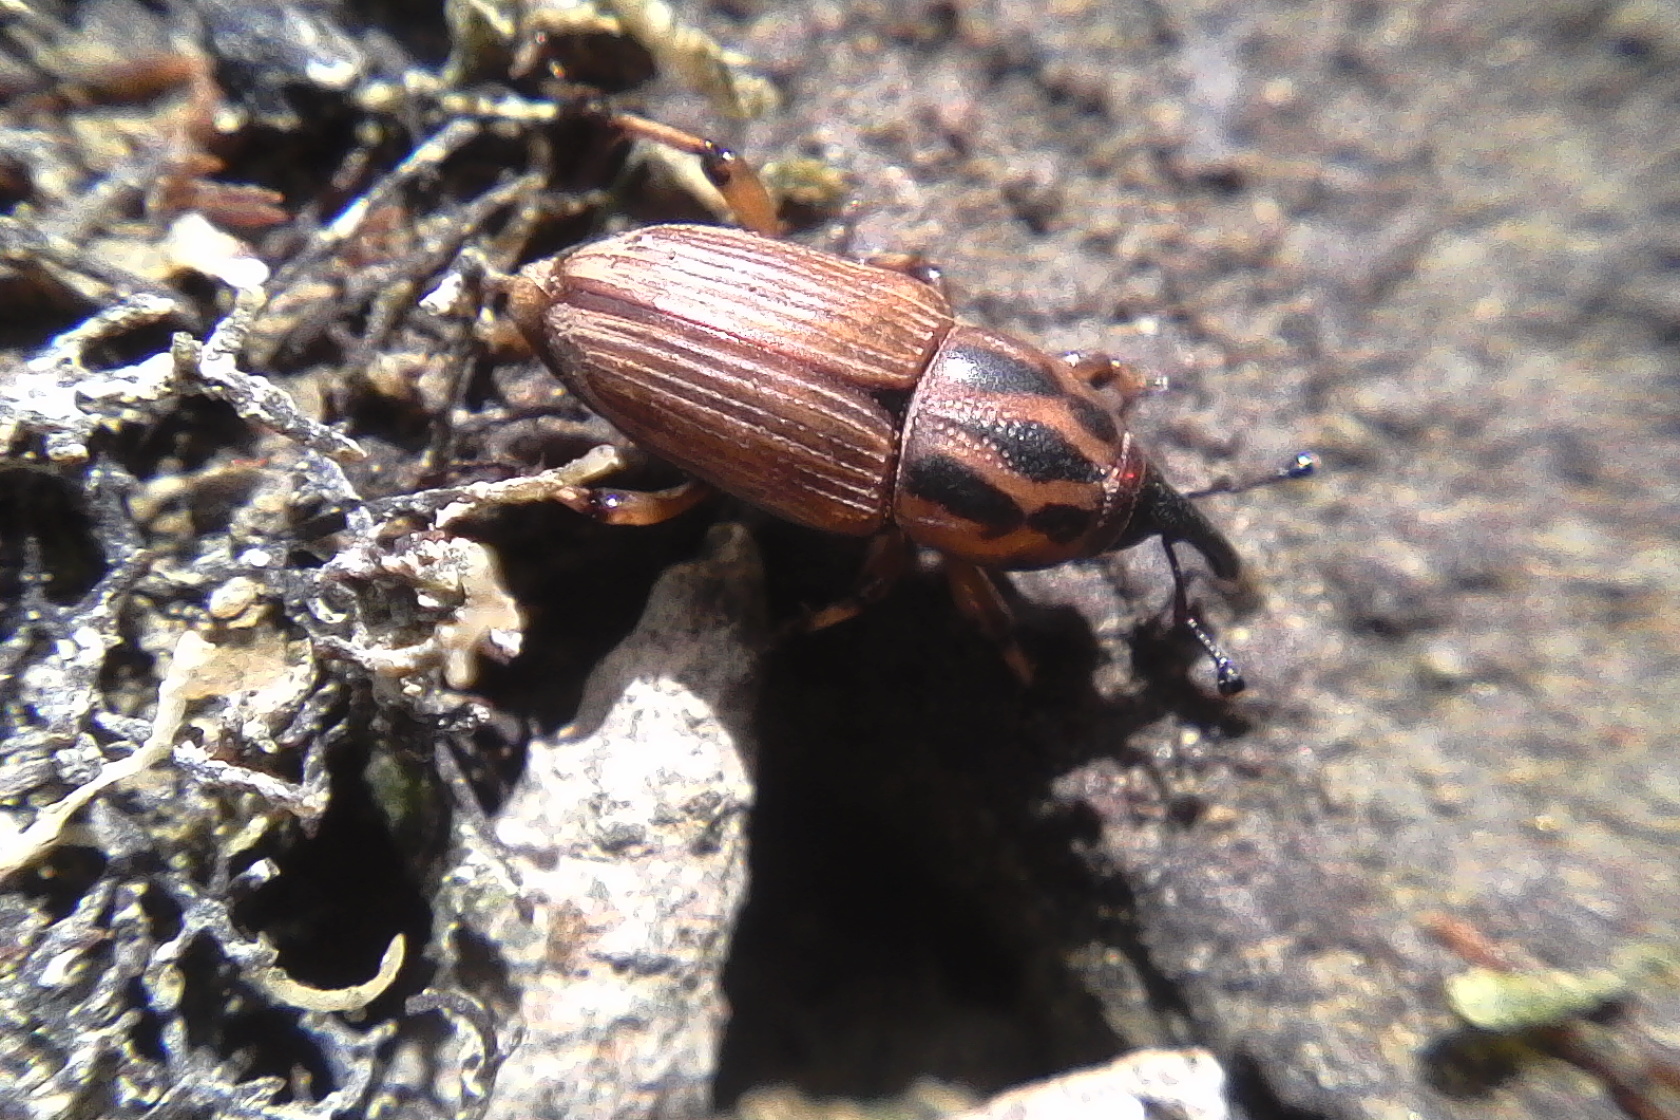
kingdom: Animalia
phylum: Arthropoda
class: Insecta
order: Coleoptera
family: Dryophthoridae
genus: Sphenophorus
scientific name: Sphenophorus brunnipennis
